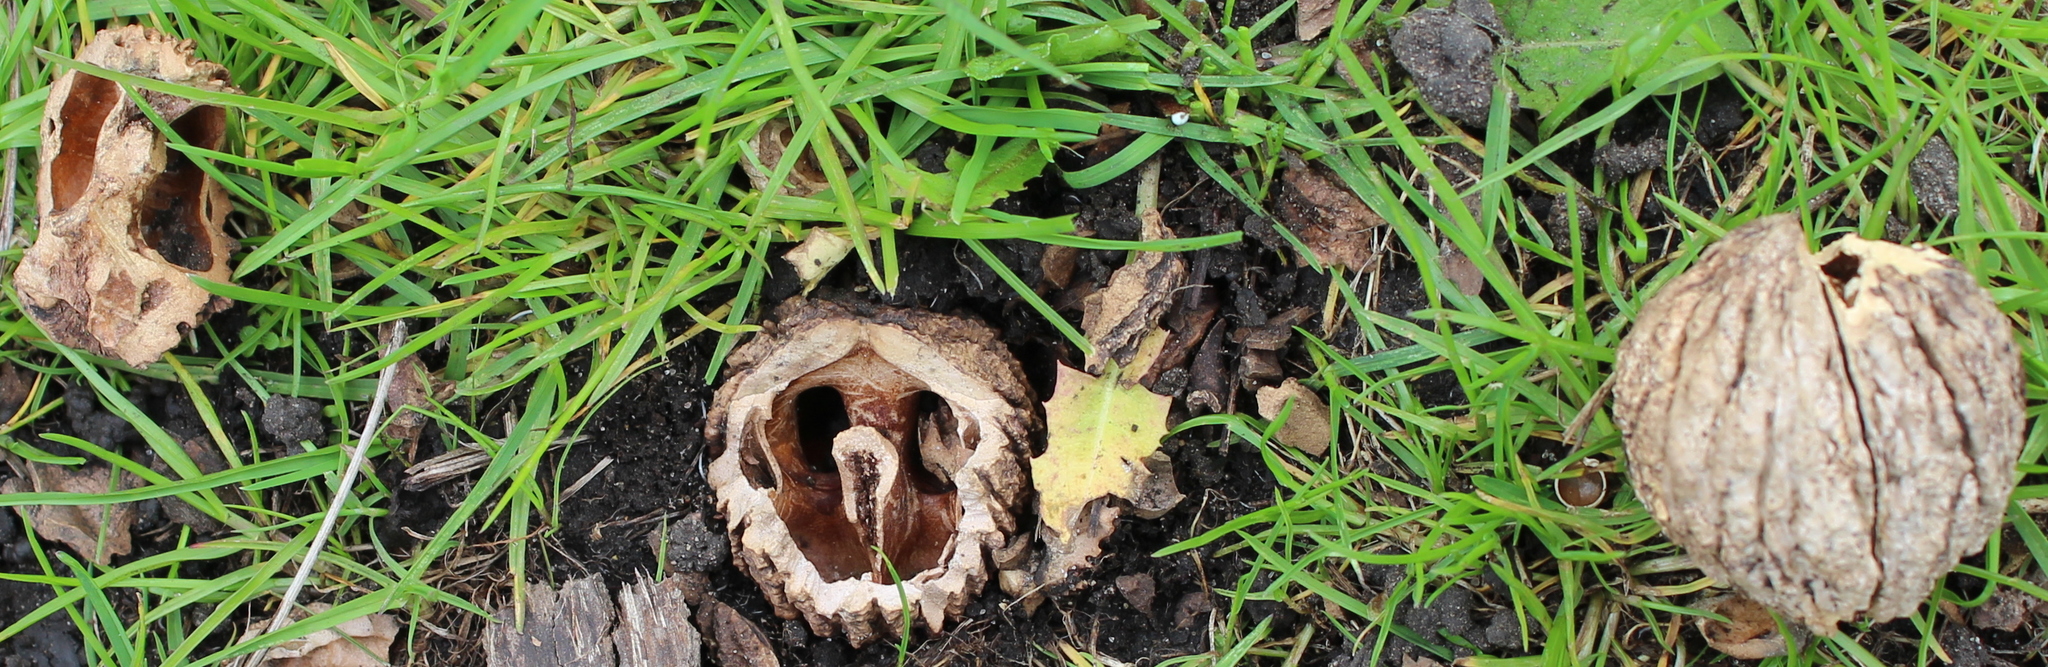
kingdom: Plantae
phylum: Tracheophyta
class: Magnoliopsida
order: Fagales
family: Juglandaceae
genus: Juglans
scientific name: Juglans nigra
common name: Black walnut
